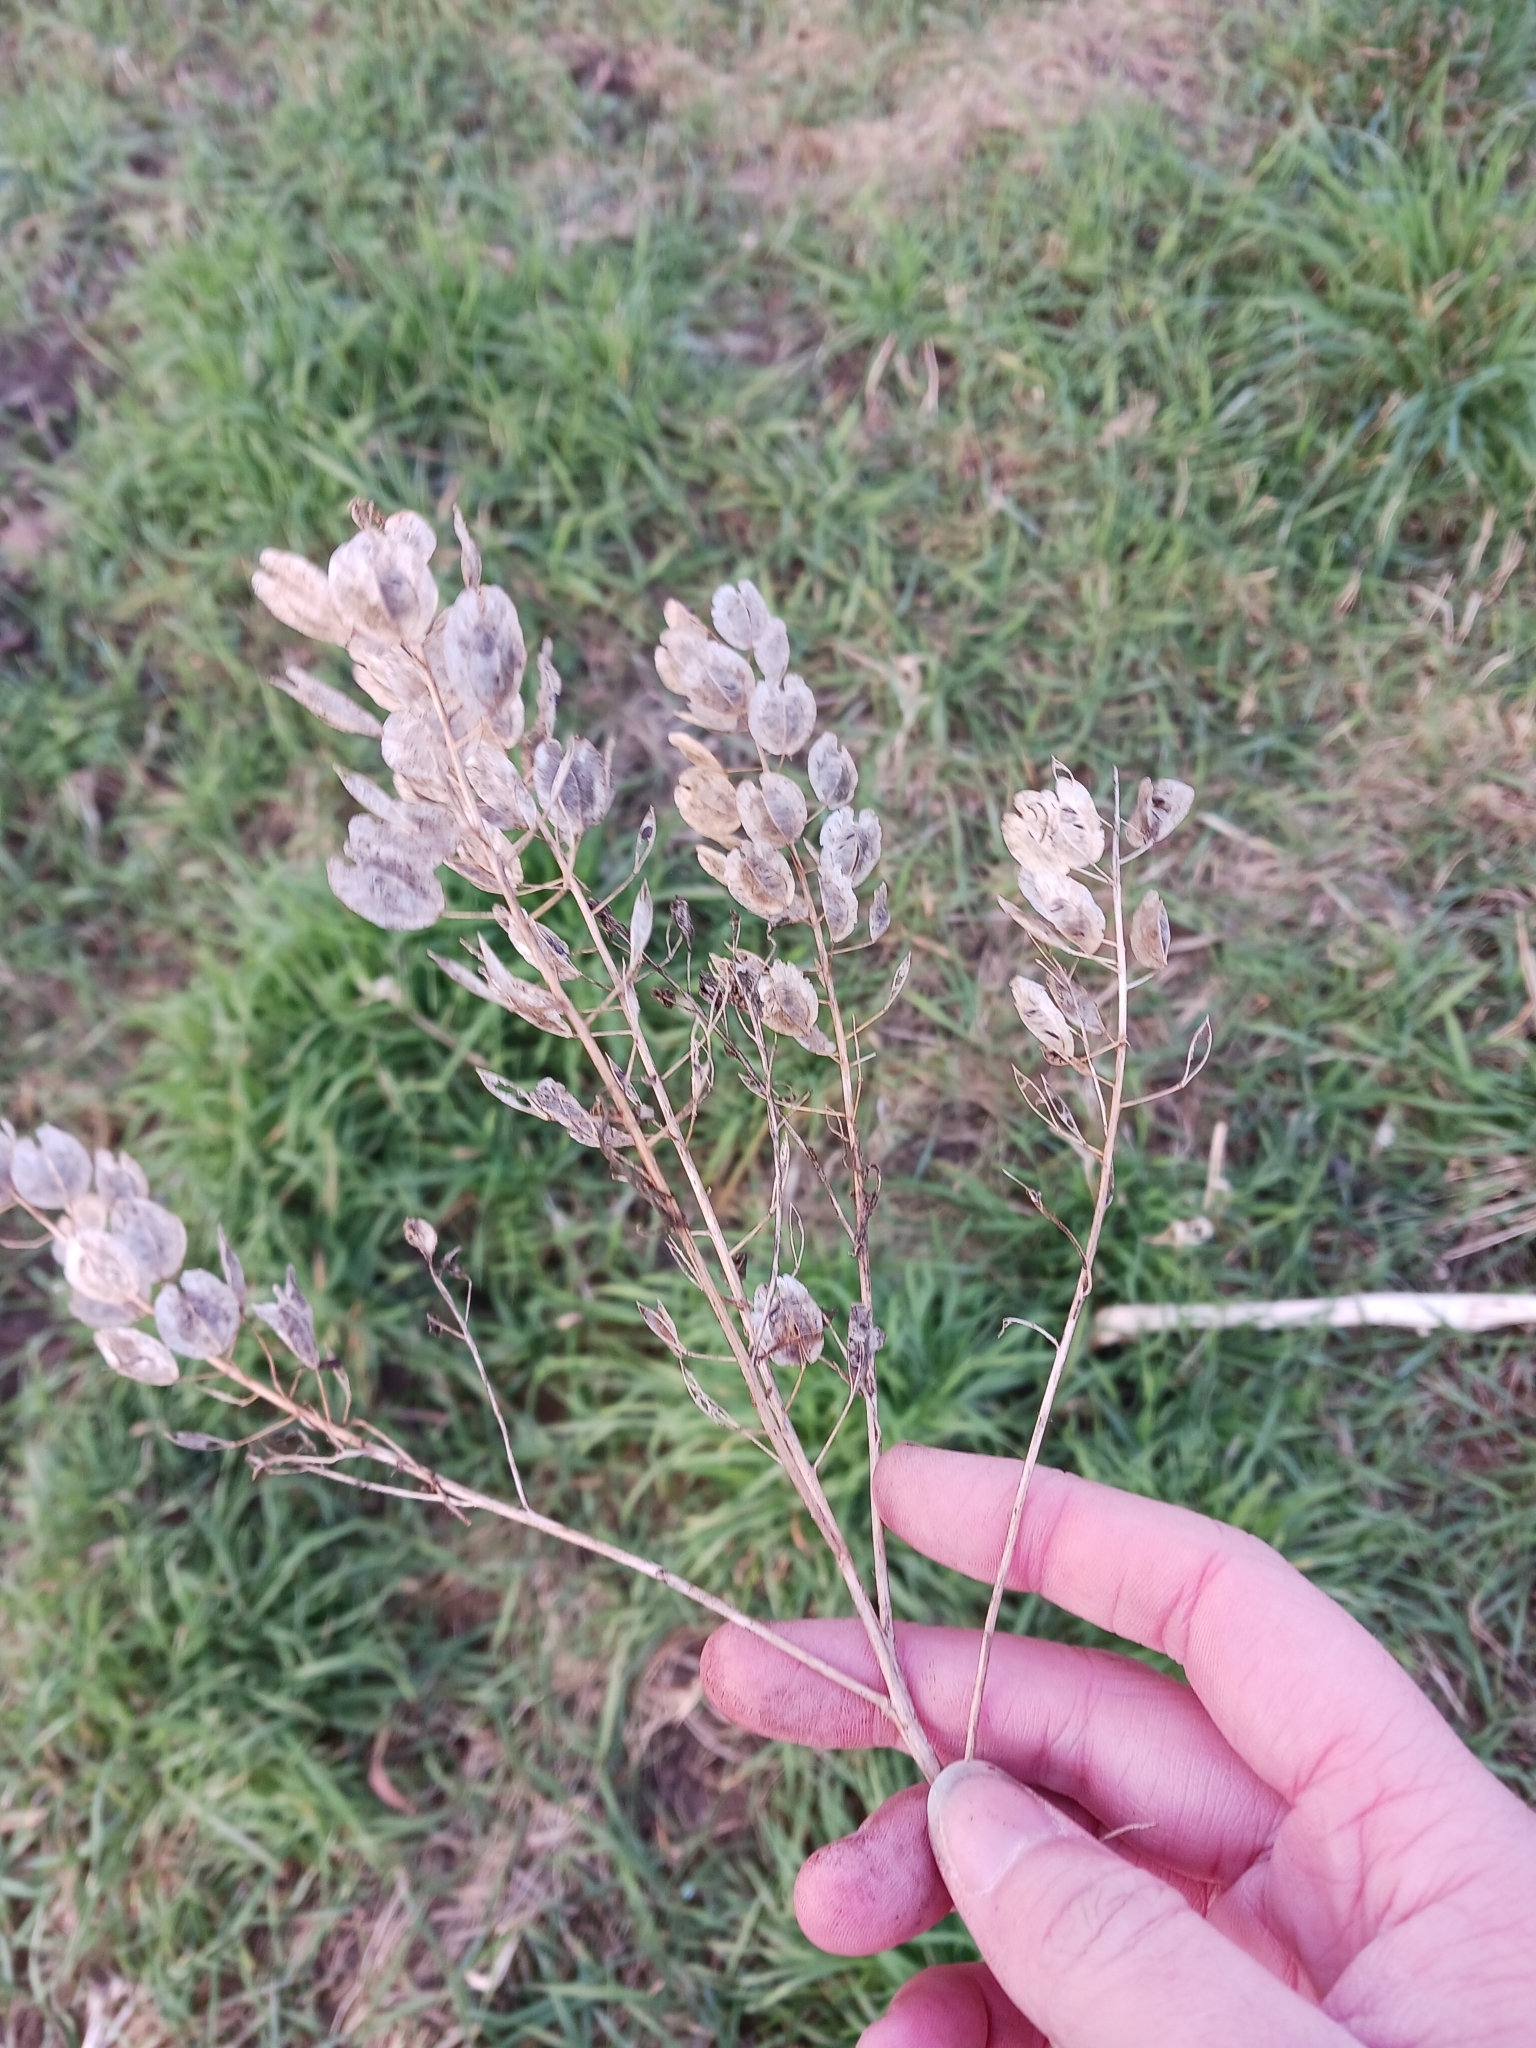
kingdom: Plantae
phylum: Tracheophyta
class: Magnoliopsida
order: Brassicales
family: Brassicaceae
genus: Thlaspi
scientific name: Thlaspi arvense
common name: Field pennycress
